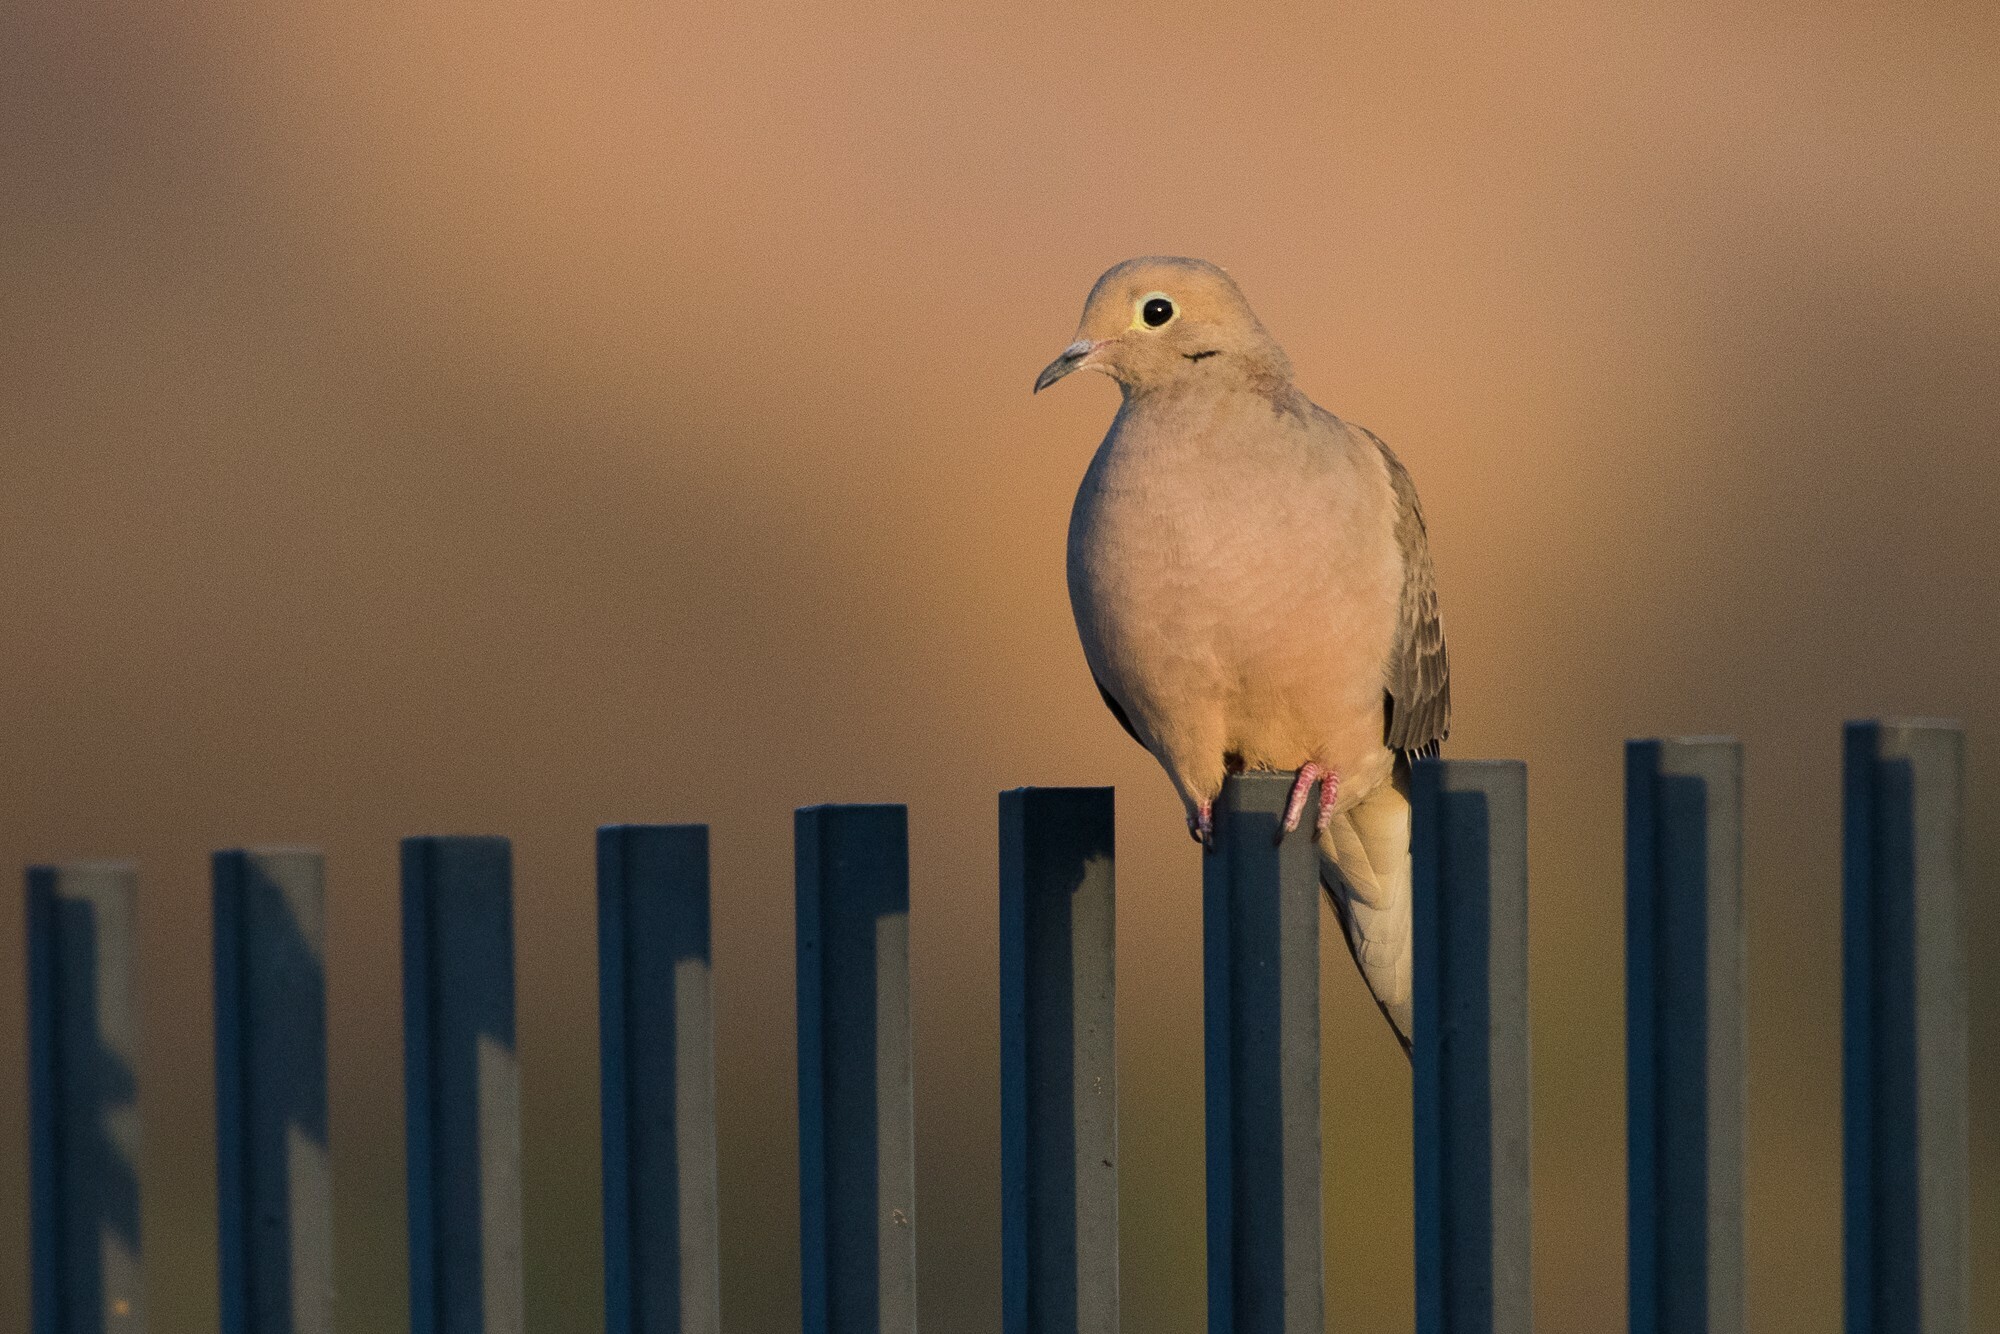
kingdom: Animalia
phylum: Chordata
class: Aves
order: Columbiformes
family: Columbidae
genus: Zenaida
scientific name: Zenaida macroura
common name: Mourning dove
